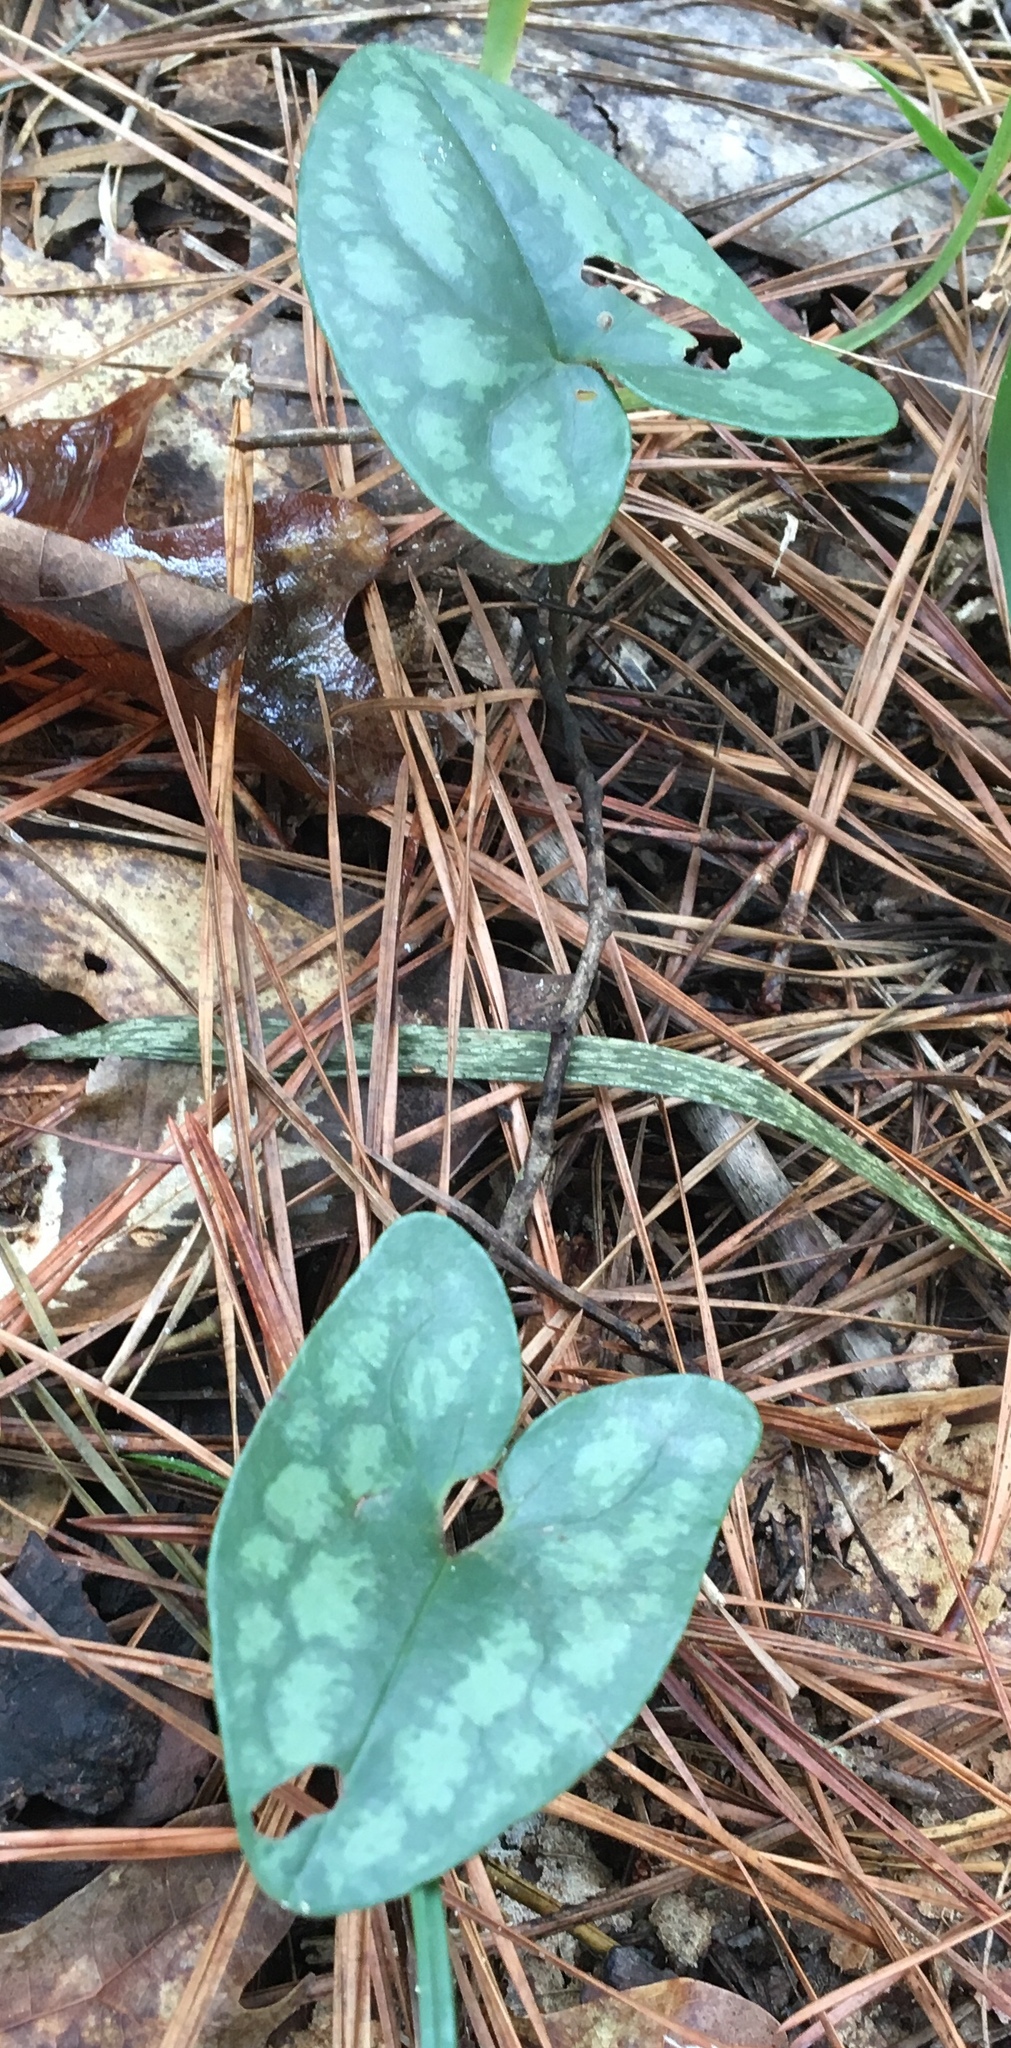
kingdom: Plantae
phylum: Tracheophyta
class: Magnoliopsida
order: Piperales
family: Aristolochiaceae
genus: Hexastylis
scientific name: Hexastylis arifolia
